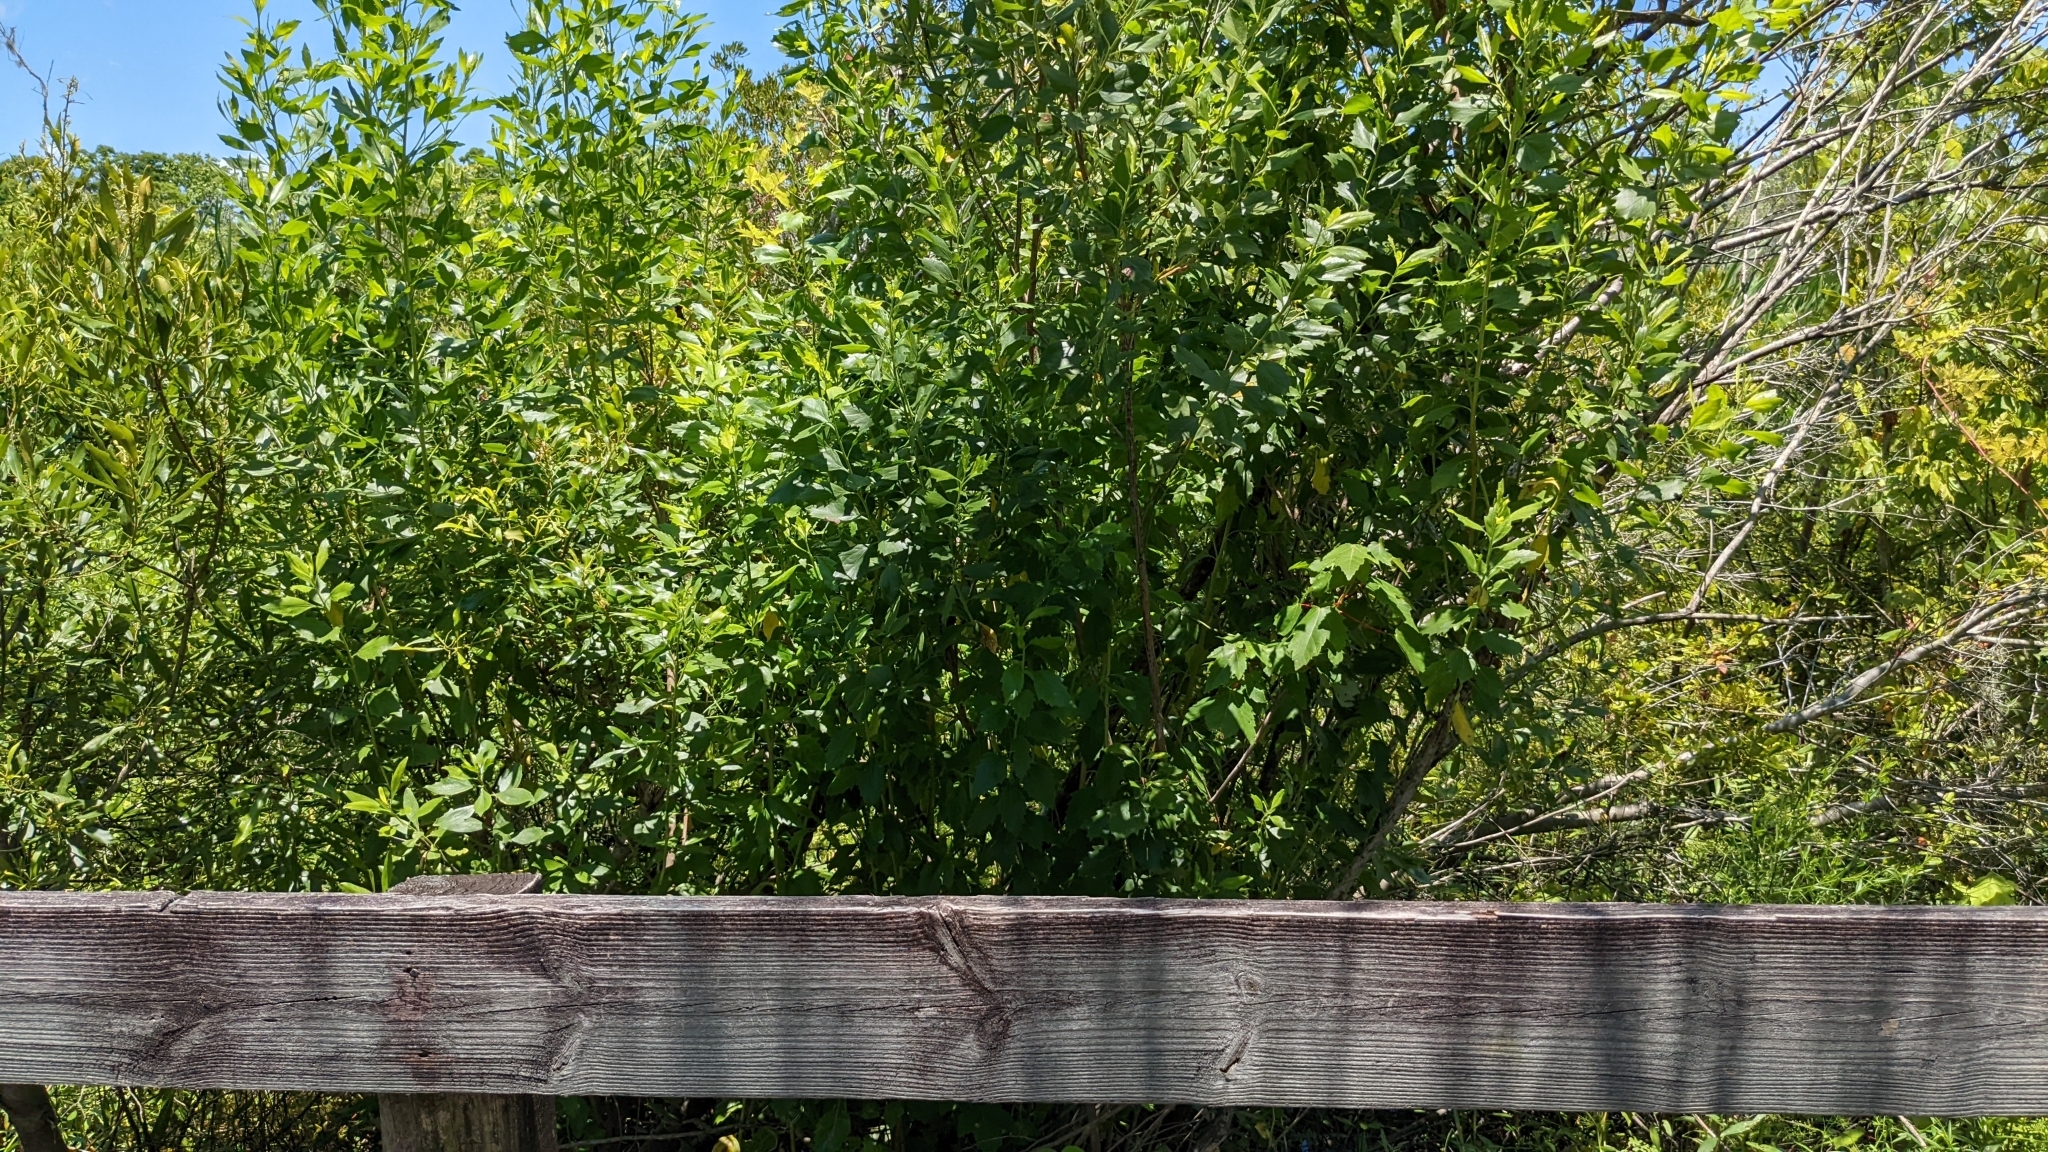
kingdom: Plantae
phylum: Tracheophyta
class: Magnoliopsida
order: Asterales
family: Asteraceae
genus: Baccharis
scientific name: Baccharis halimifolia
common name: Eastern baccharis
